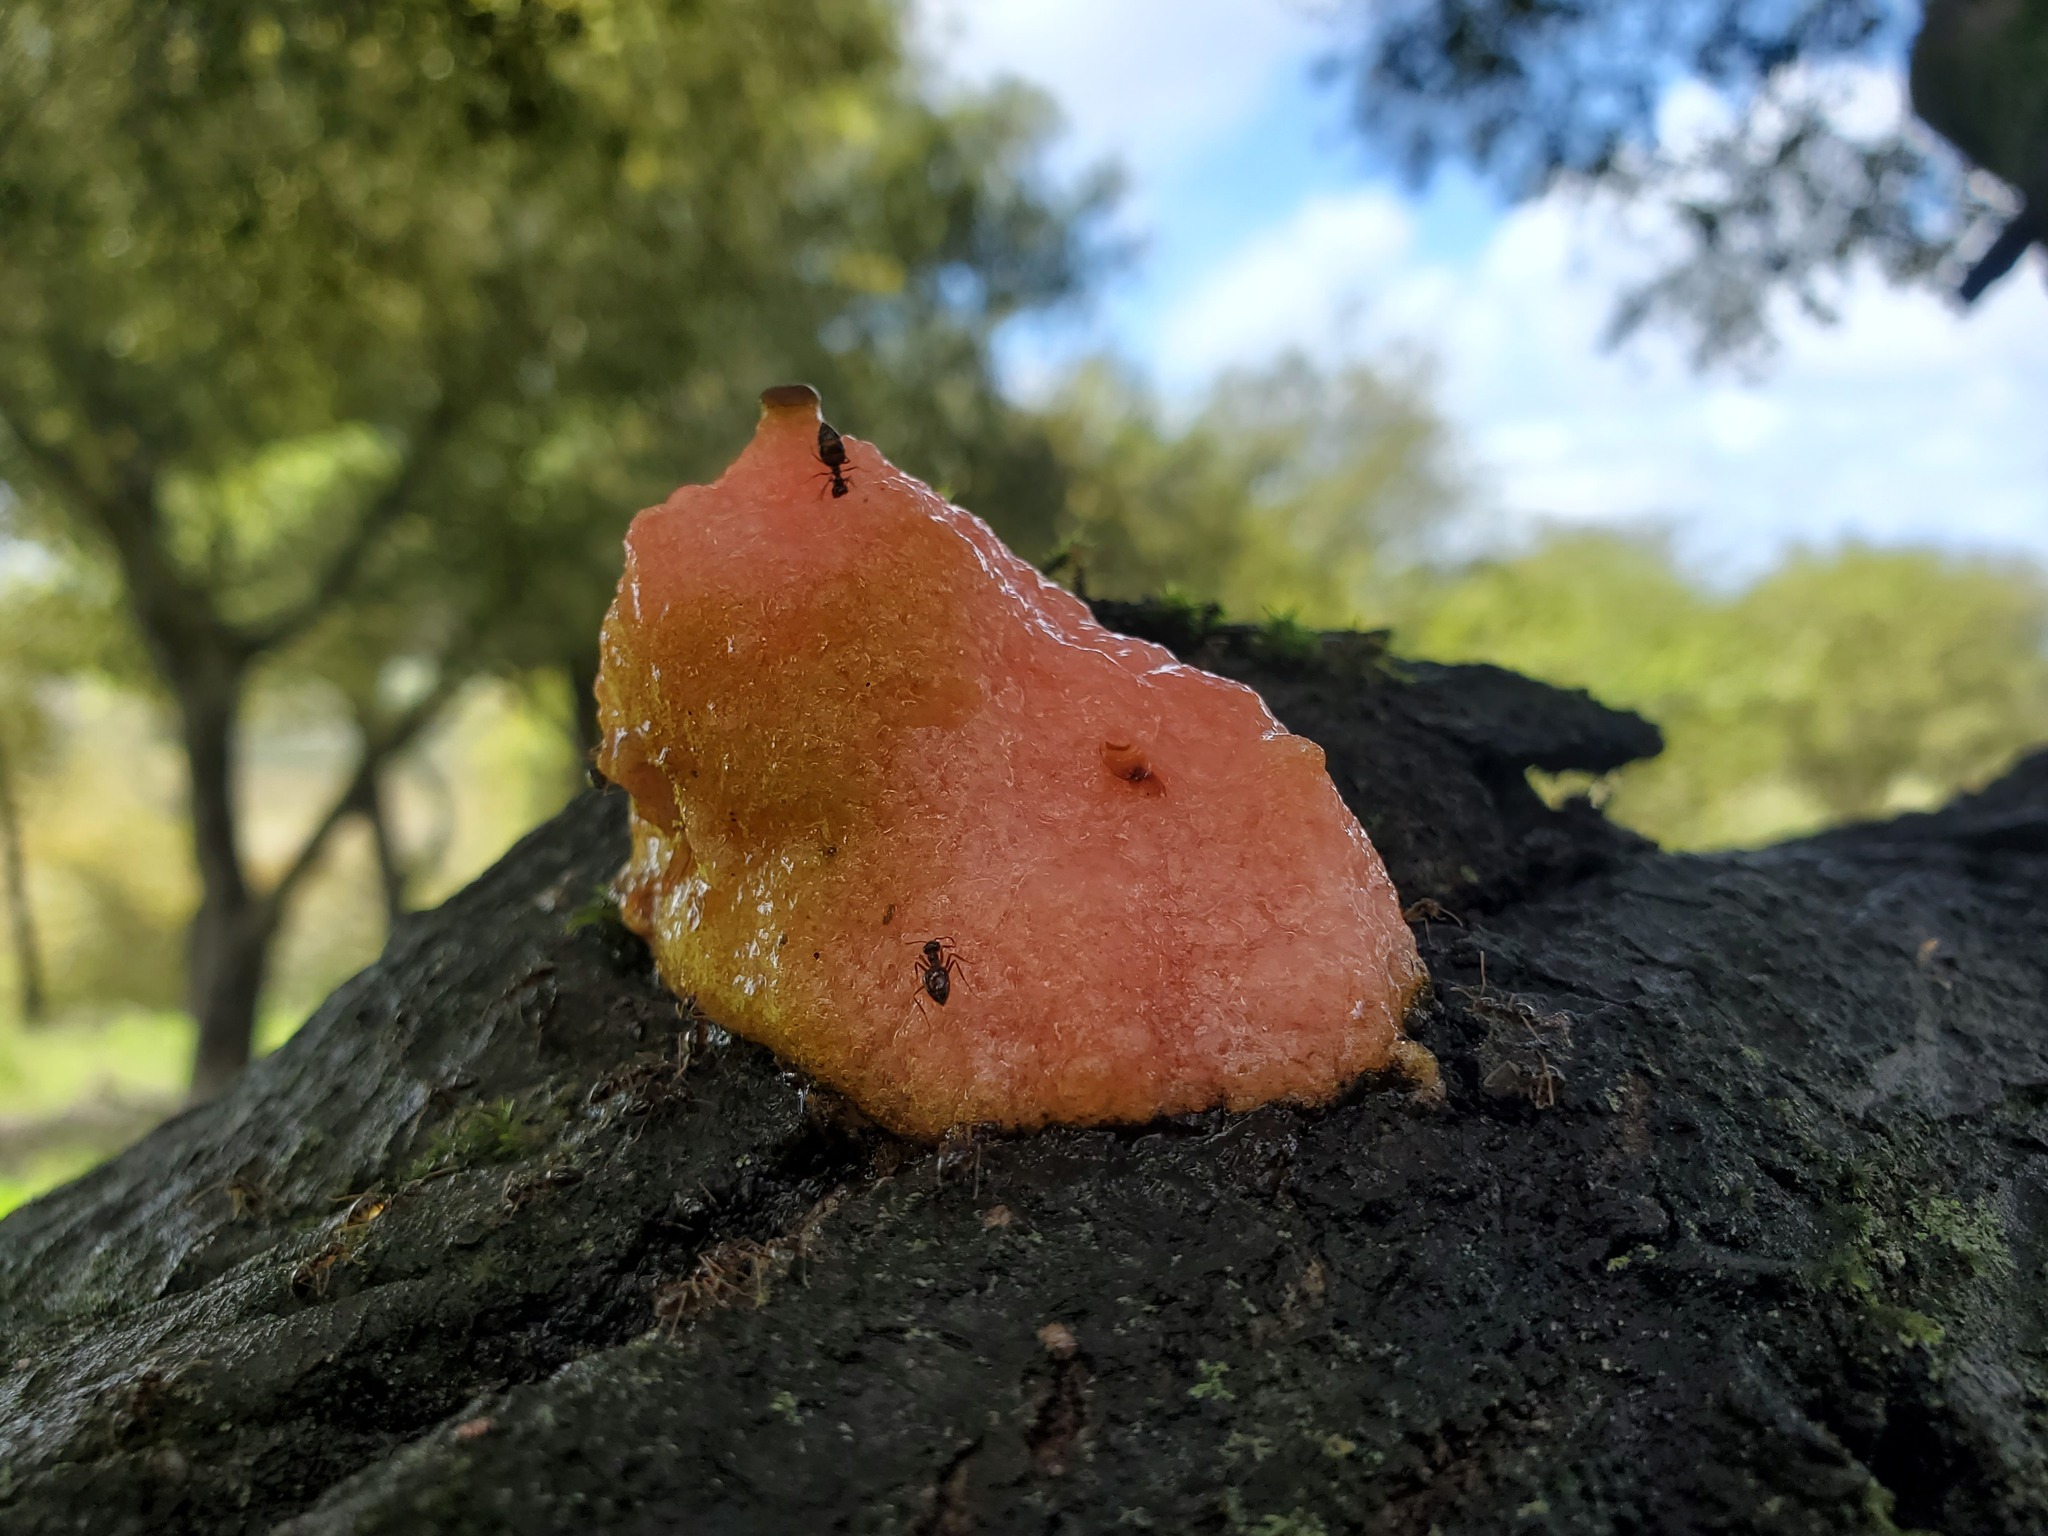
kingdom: Fungi
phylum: Ascomycota
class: Sordariomycetes
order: Hypocreales
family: Nectriaceae
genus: Fusicolla
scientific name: Fusicolla merismoides
